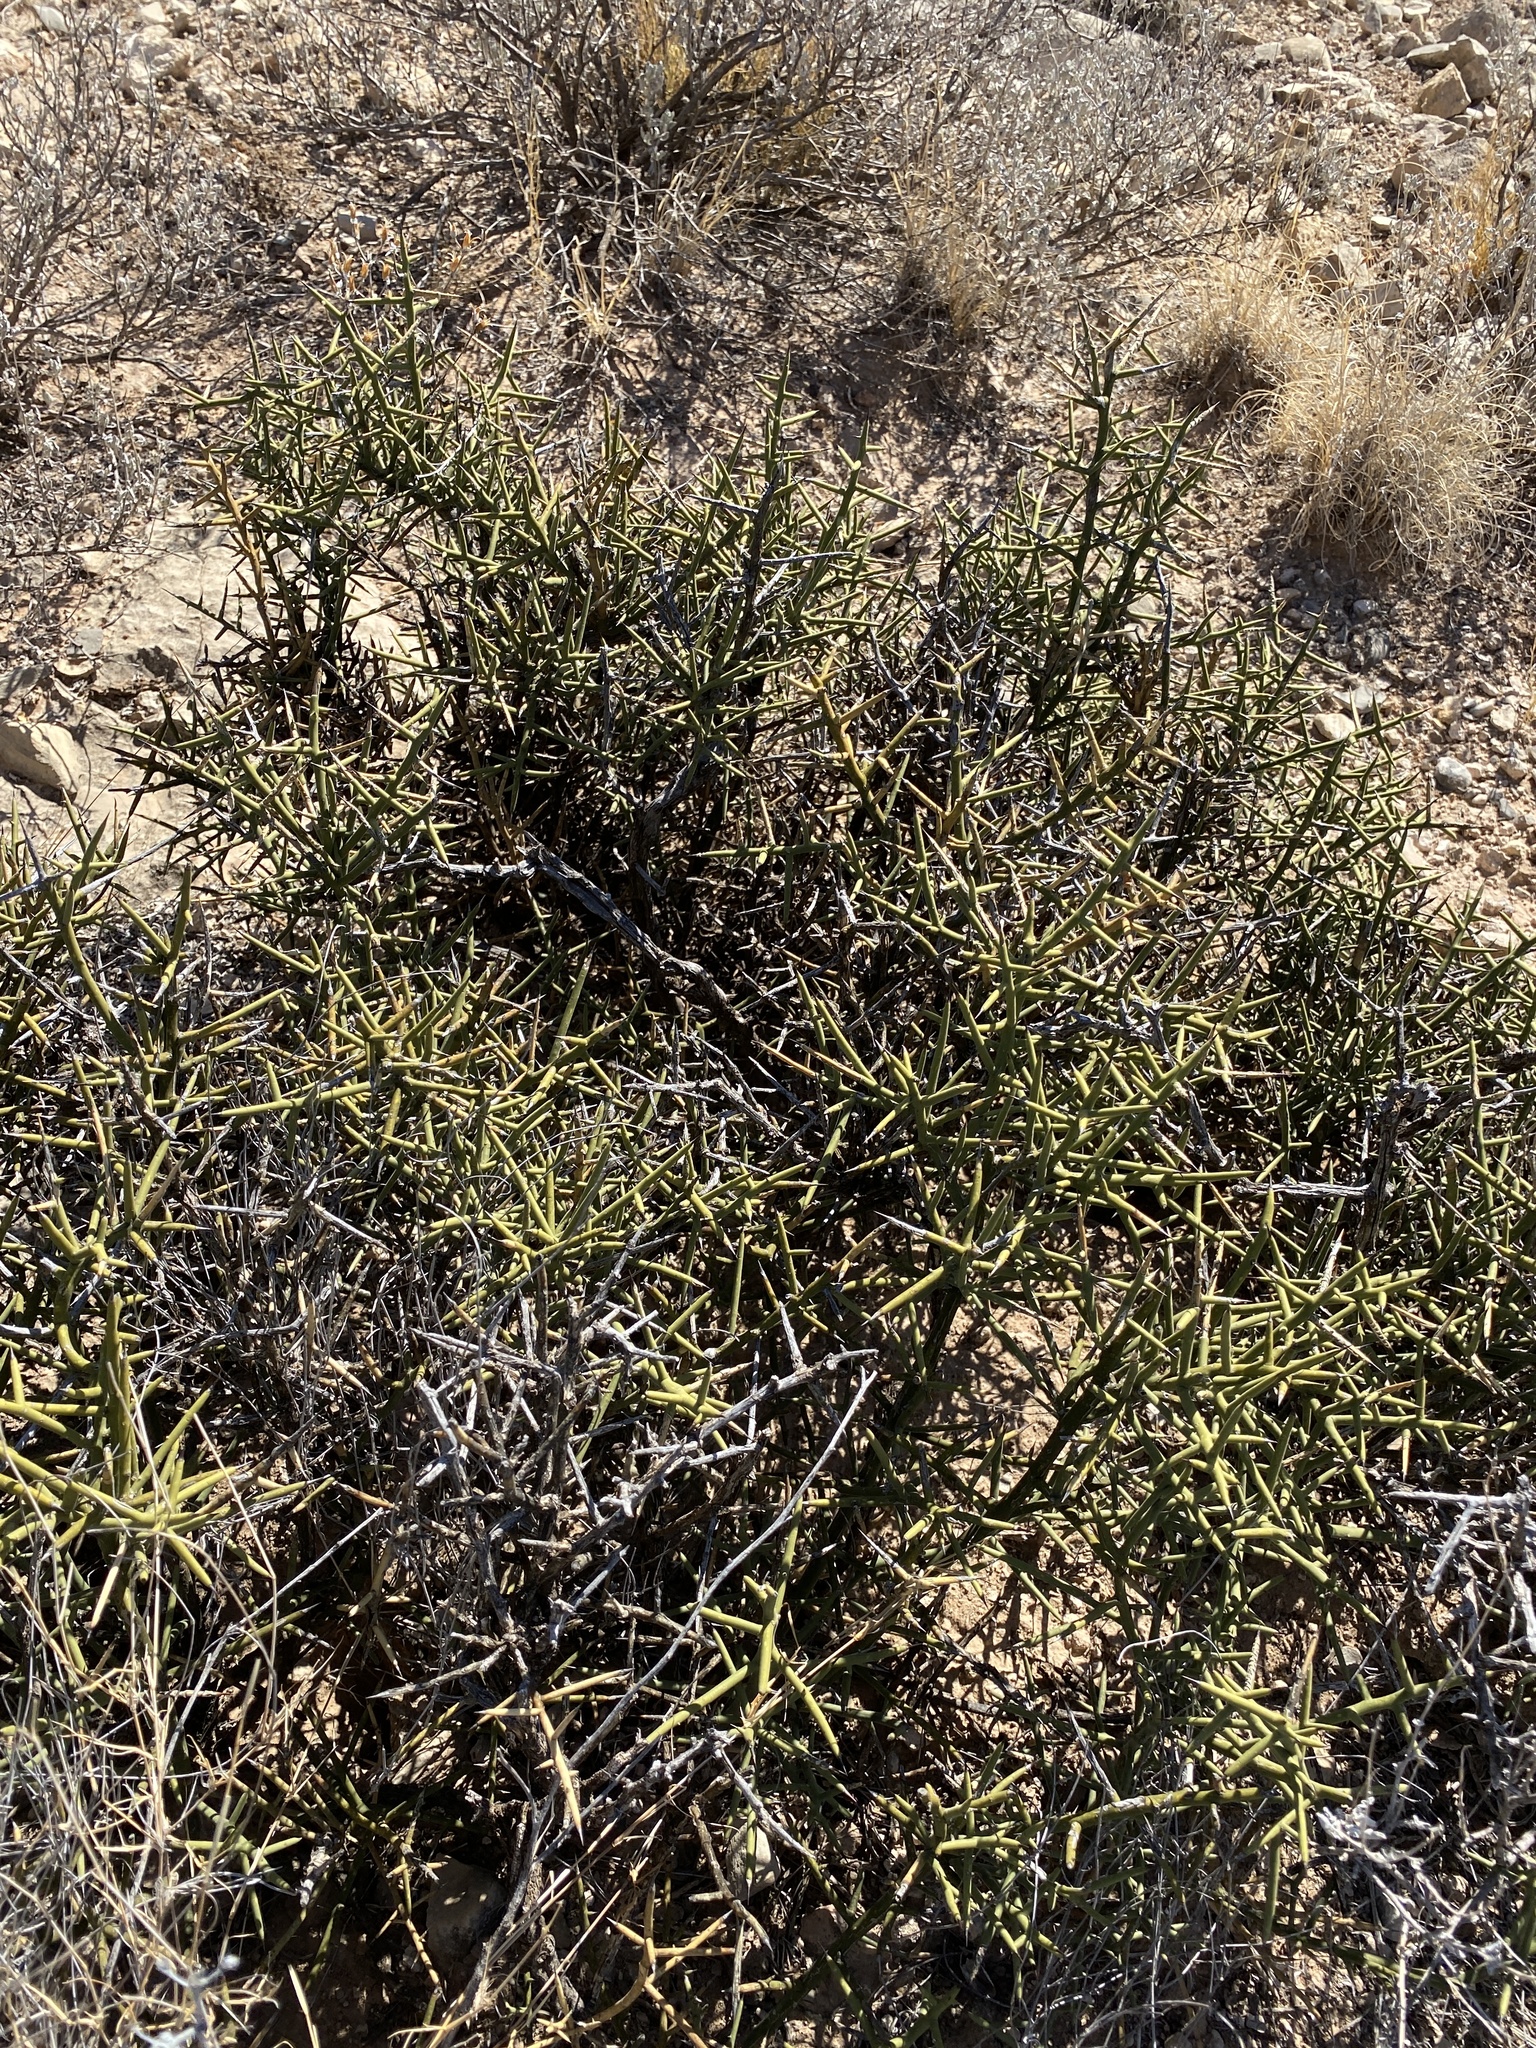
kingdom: Plantae
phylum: Tracheophyta
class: Magnoliopsida
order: Brassicales
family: Koeberliniaceae
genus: Koeberlinia
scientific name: Koeberlinia spinosa
